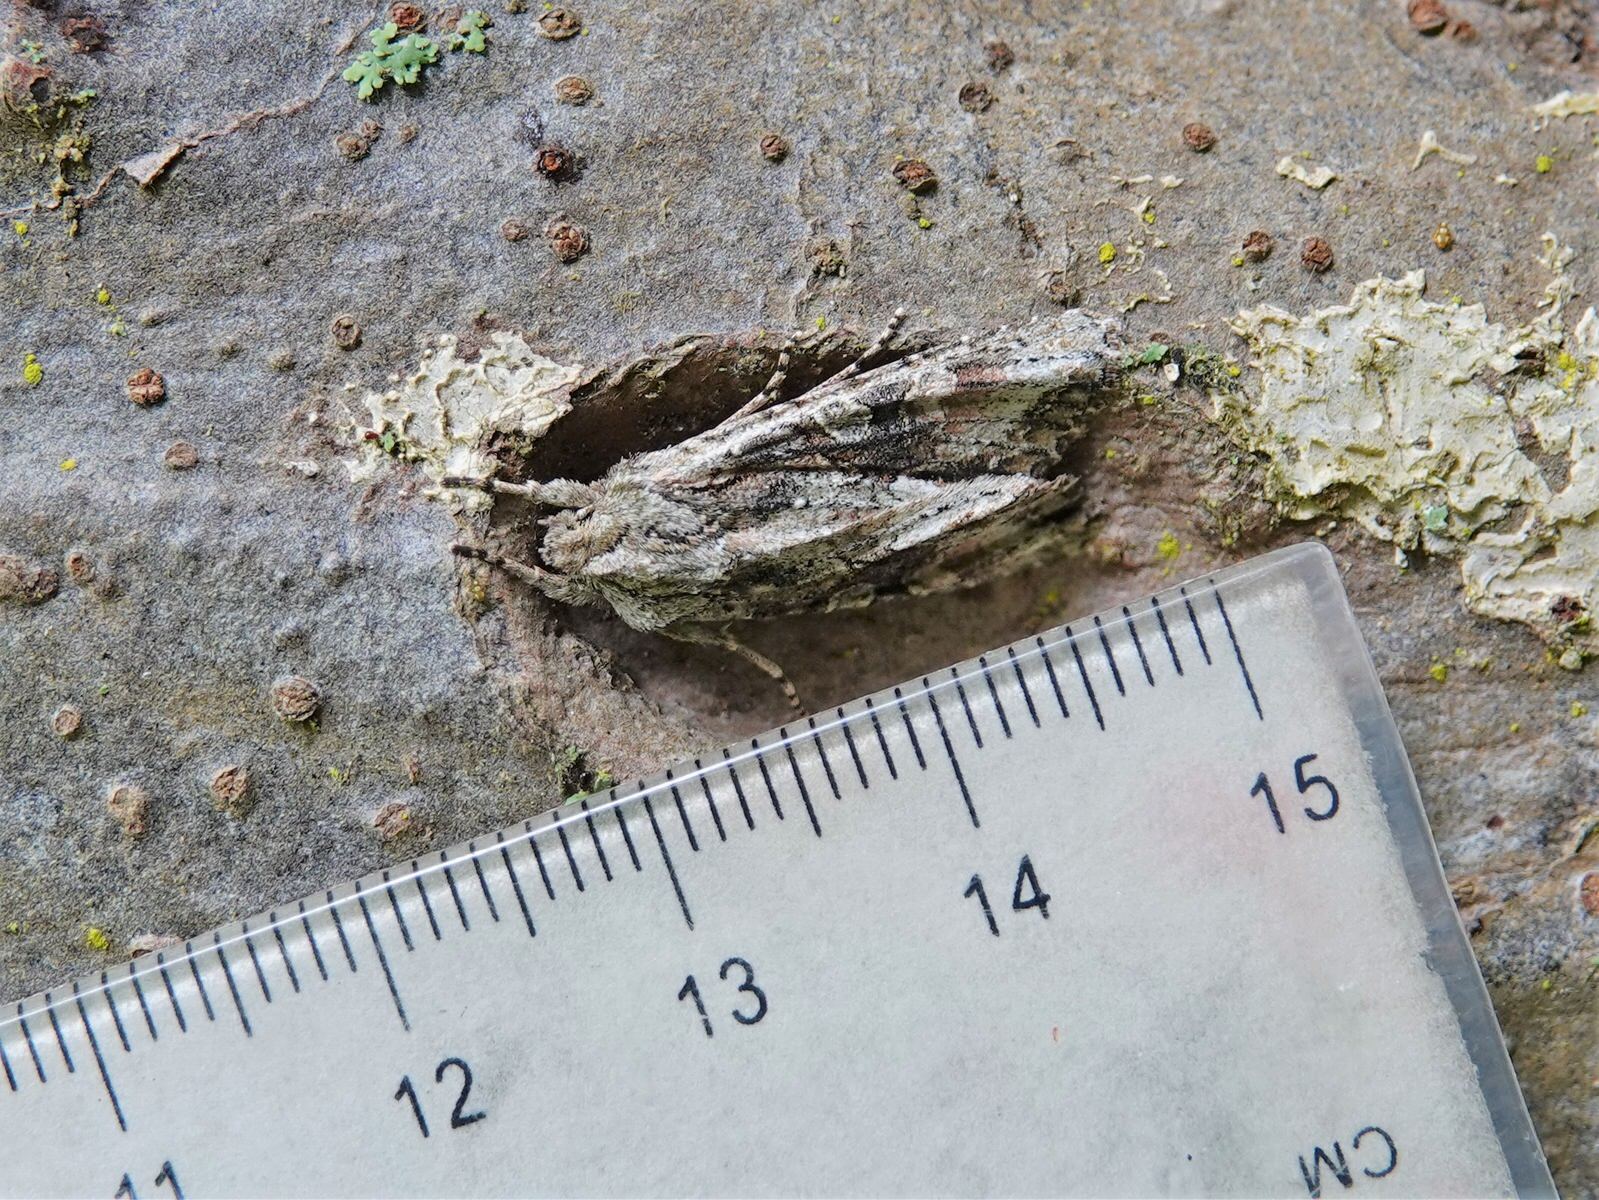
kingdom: Animalia
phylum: Arthropoda
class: Insecta
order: Lepidoptera
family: Noctuidae
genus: Ichneutica
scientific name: Ichneutica mutans
